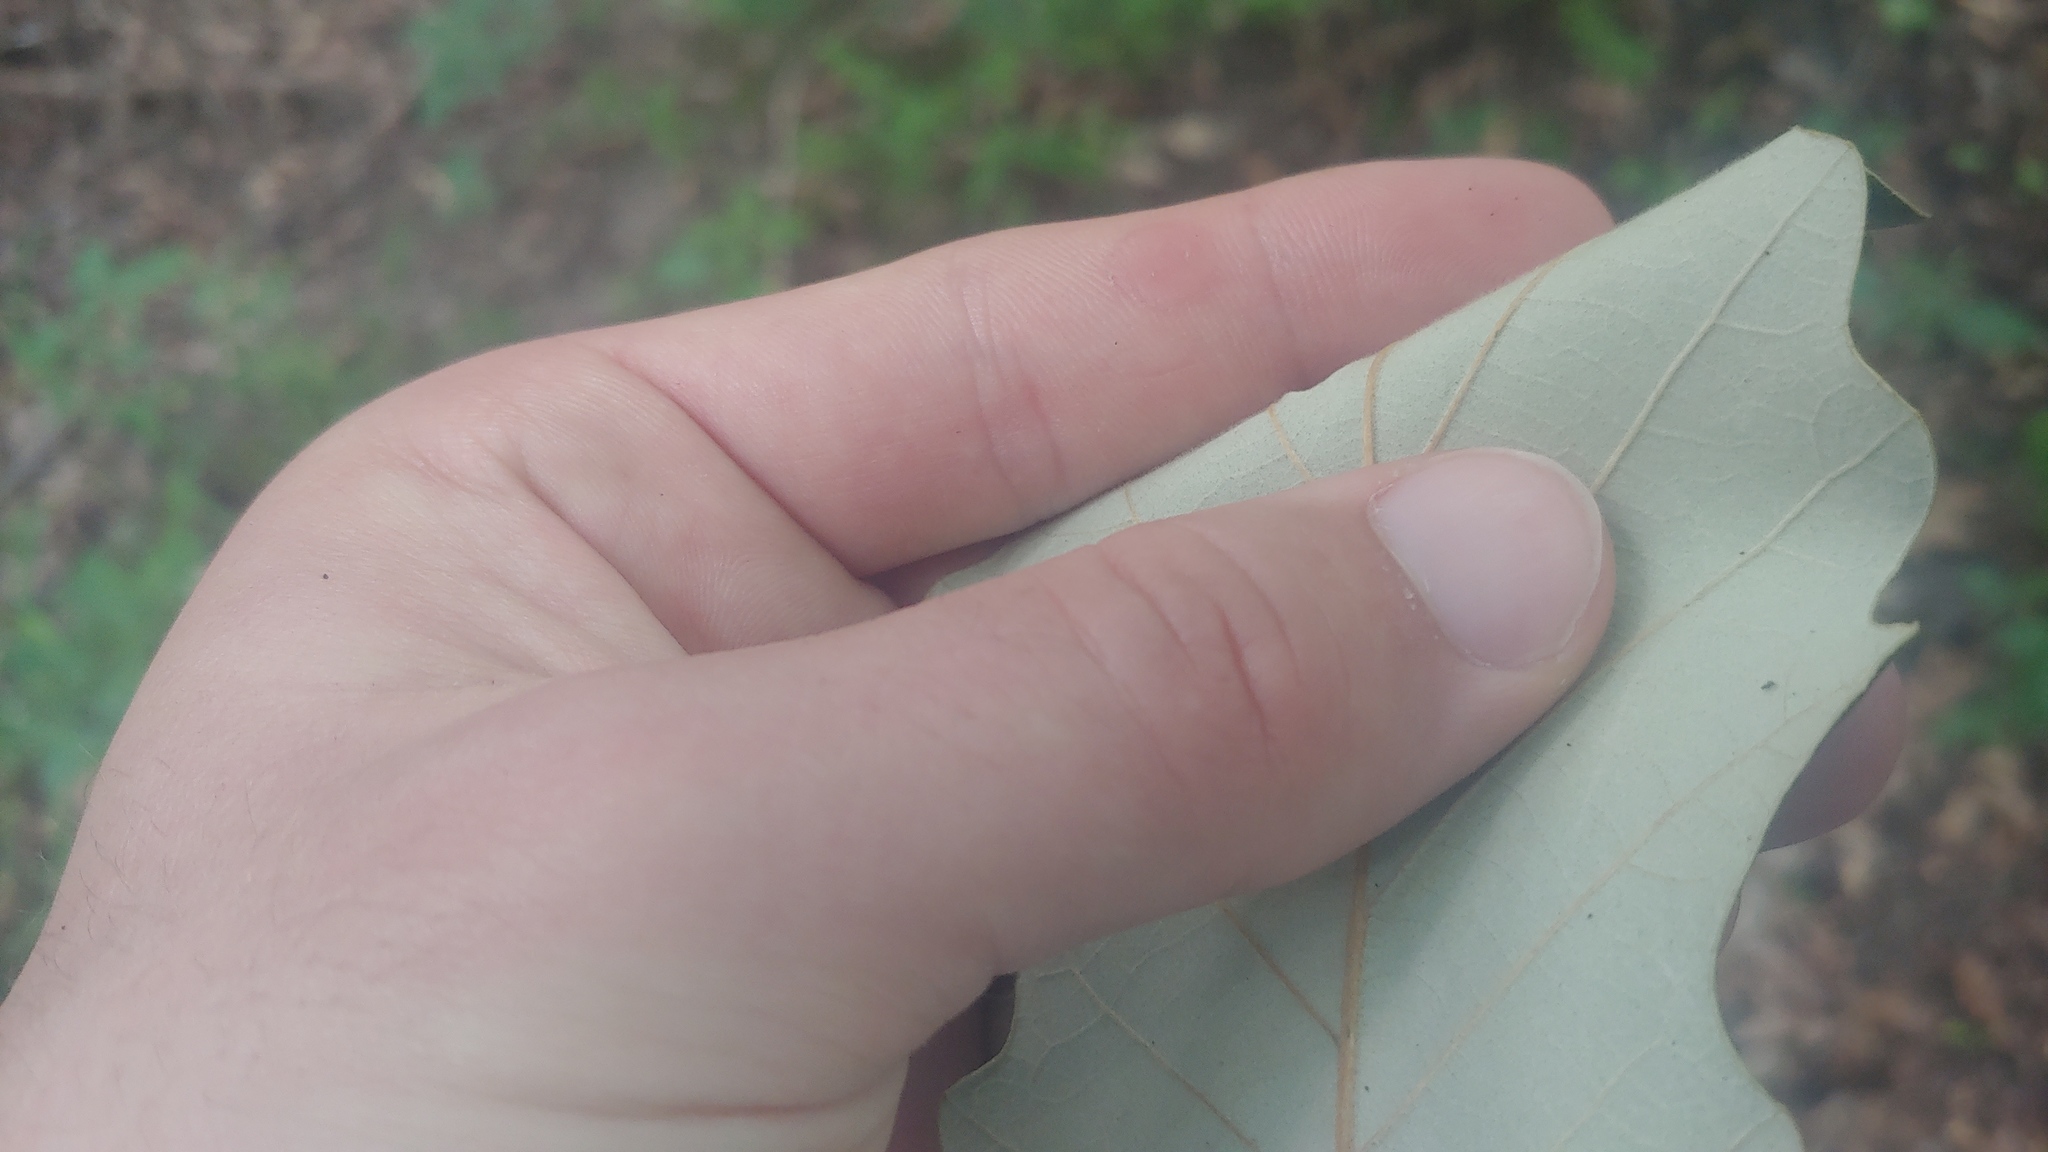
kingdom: Plantae
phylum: Tracheophyta
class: Magnoliopsida
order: Fagales
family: Fagaceae
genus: Quercus
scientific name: Quercus bicolor
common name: Swamp white oak
